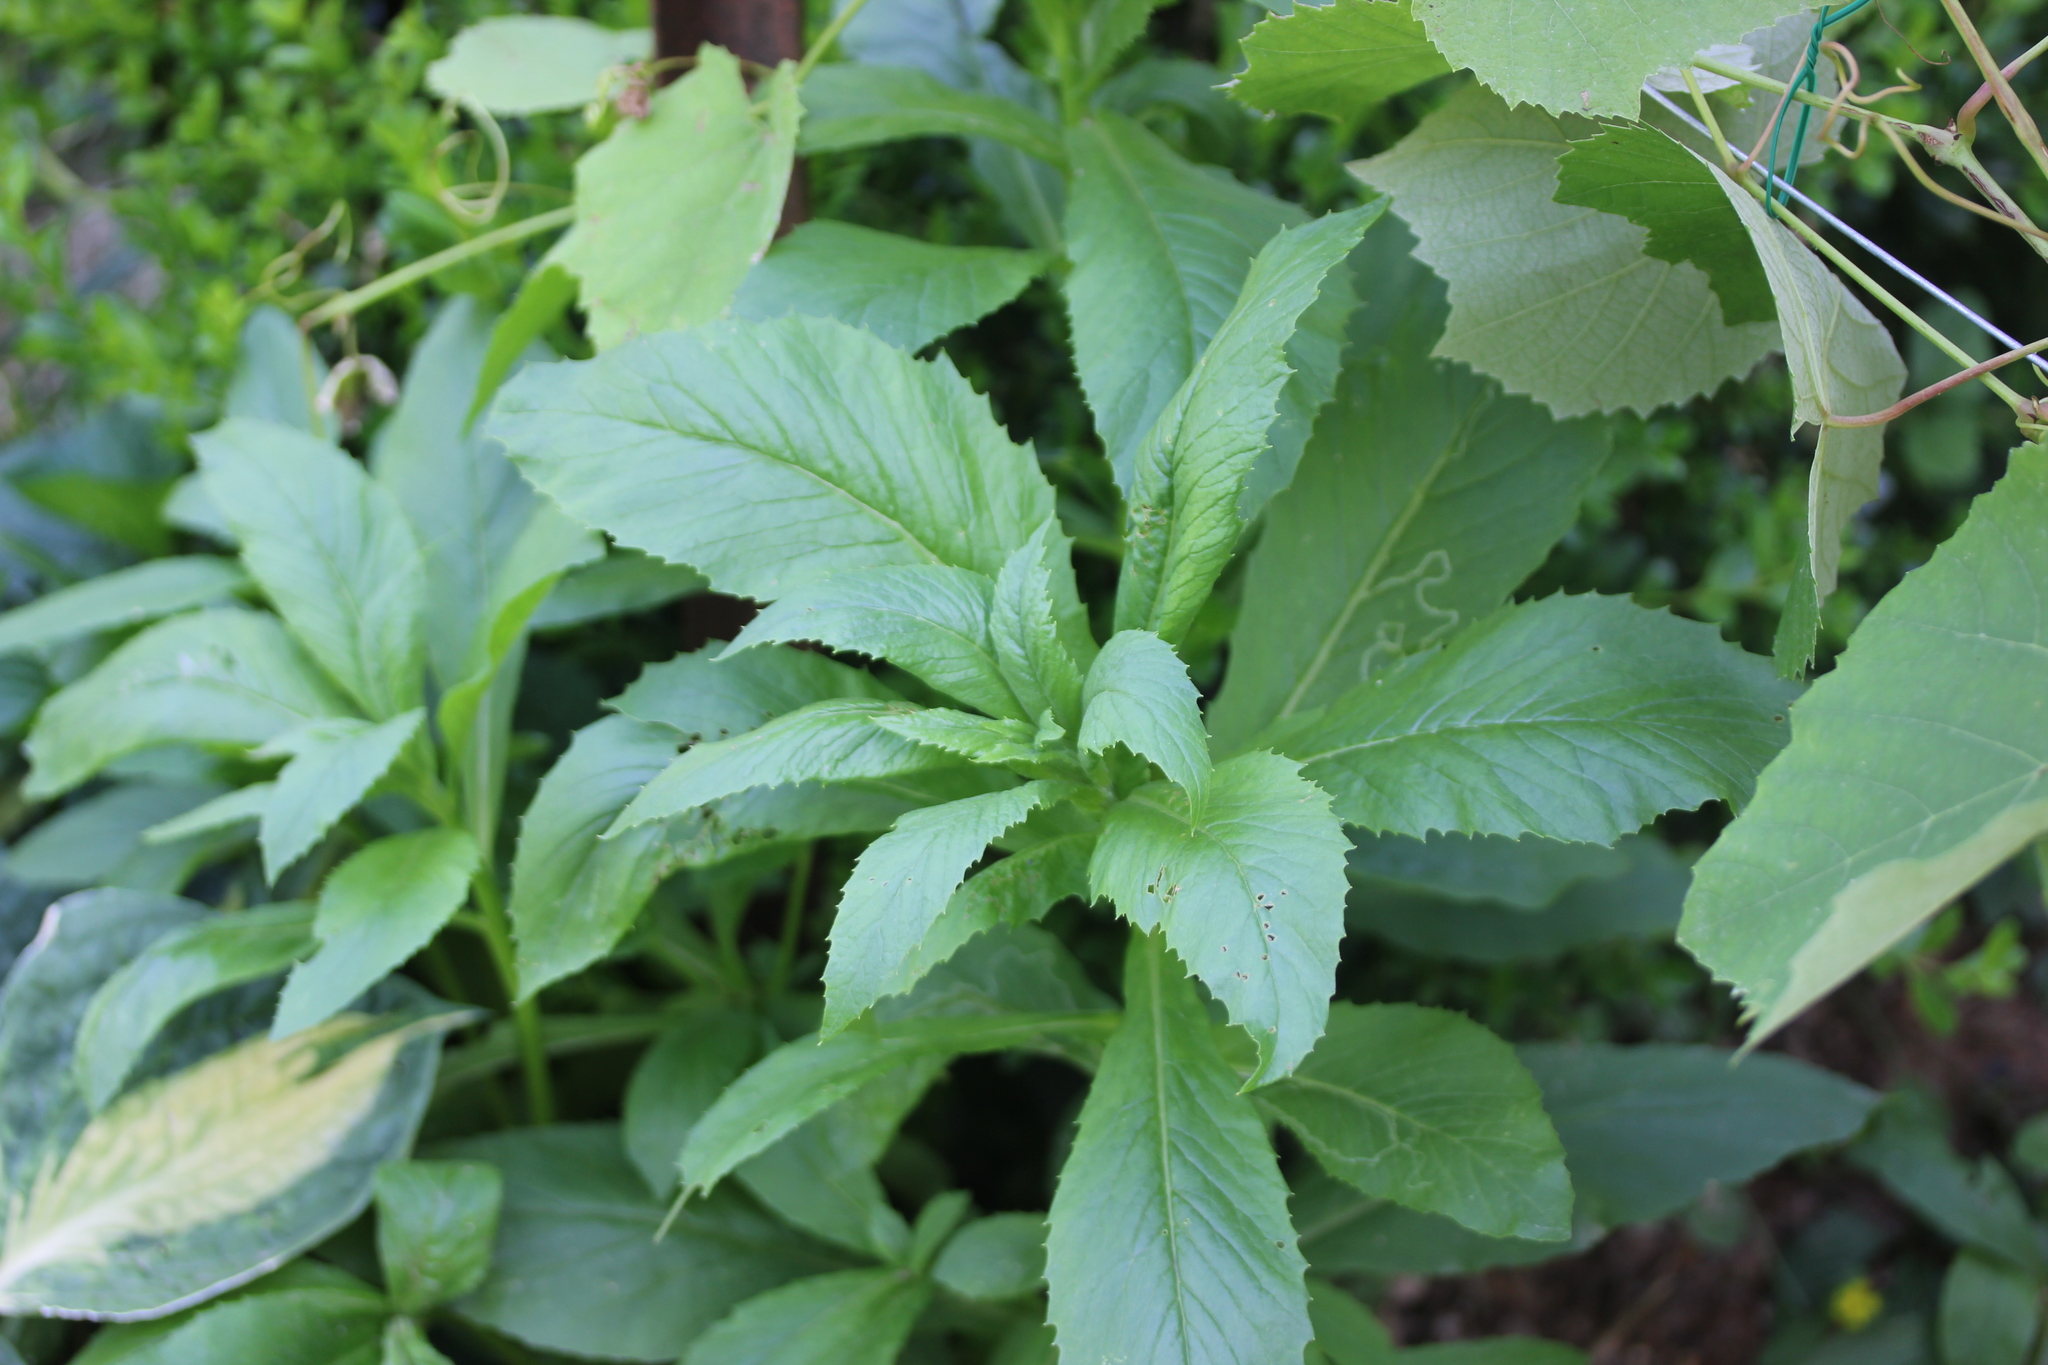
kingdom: Plantae
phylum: Tracheophyta
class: Magnoliopsida
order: Asterales
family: Asteraceae
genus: Erechtites
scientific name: Erechtites hieraciifolius
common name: American burnweed
